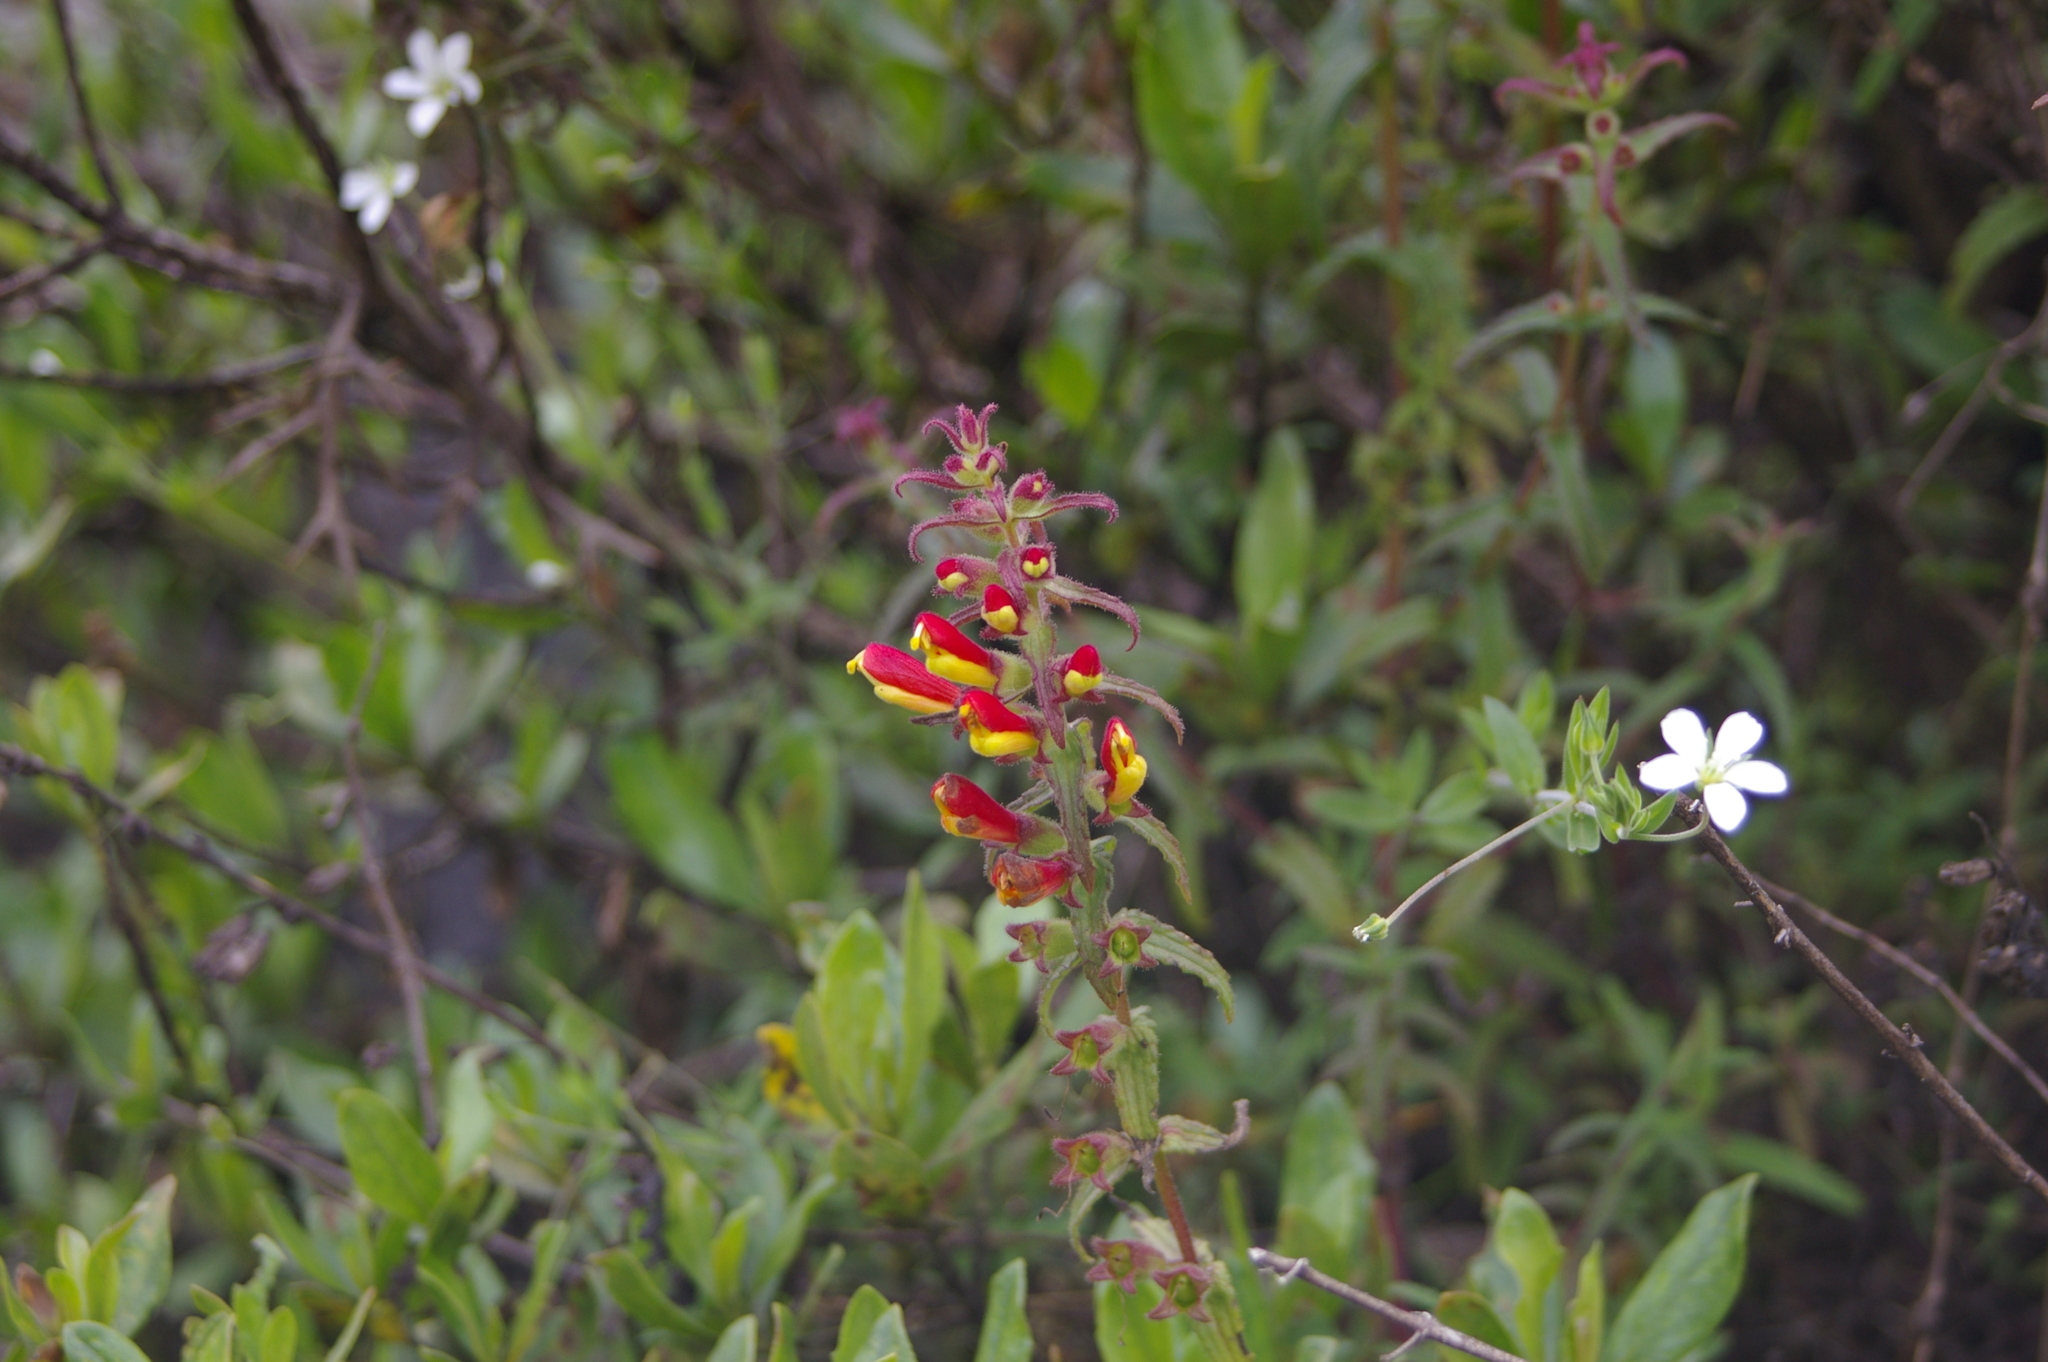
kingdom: Plantae
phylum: Tracheophyta
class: Magnoliopsida
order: Lamiales
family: Orobanchaceae
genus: Neobartsia
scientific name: Neobartsia camporum
